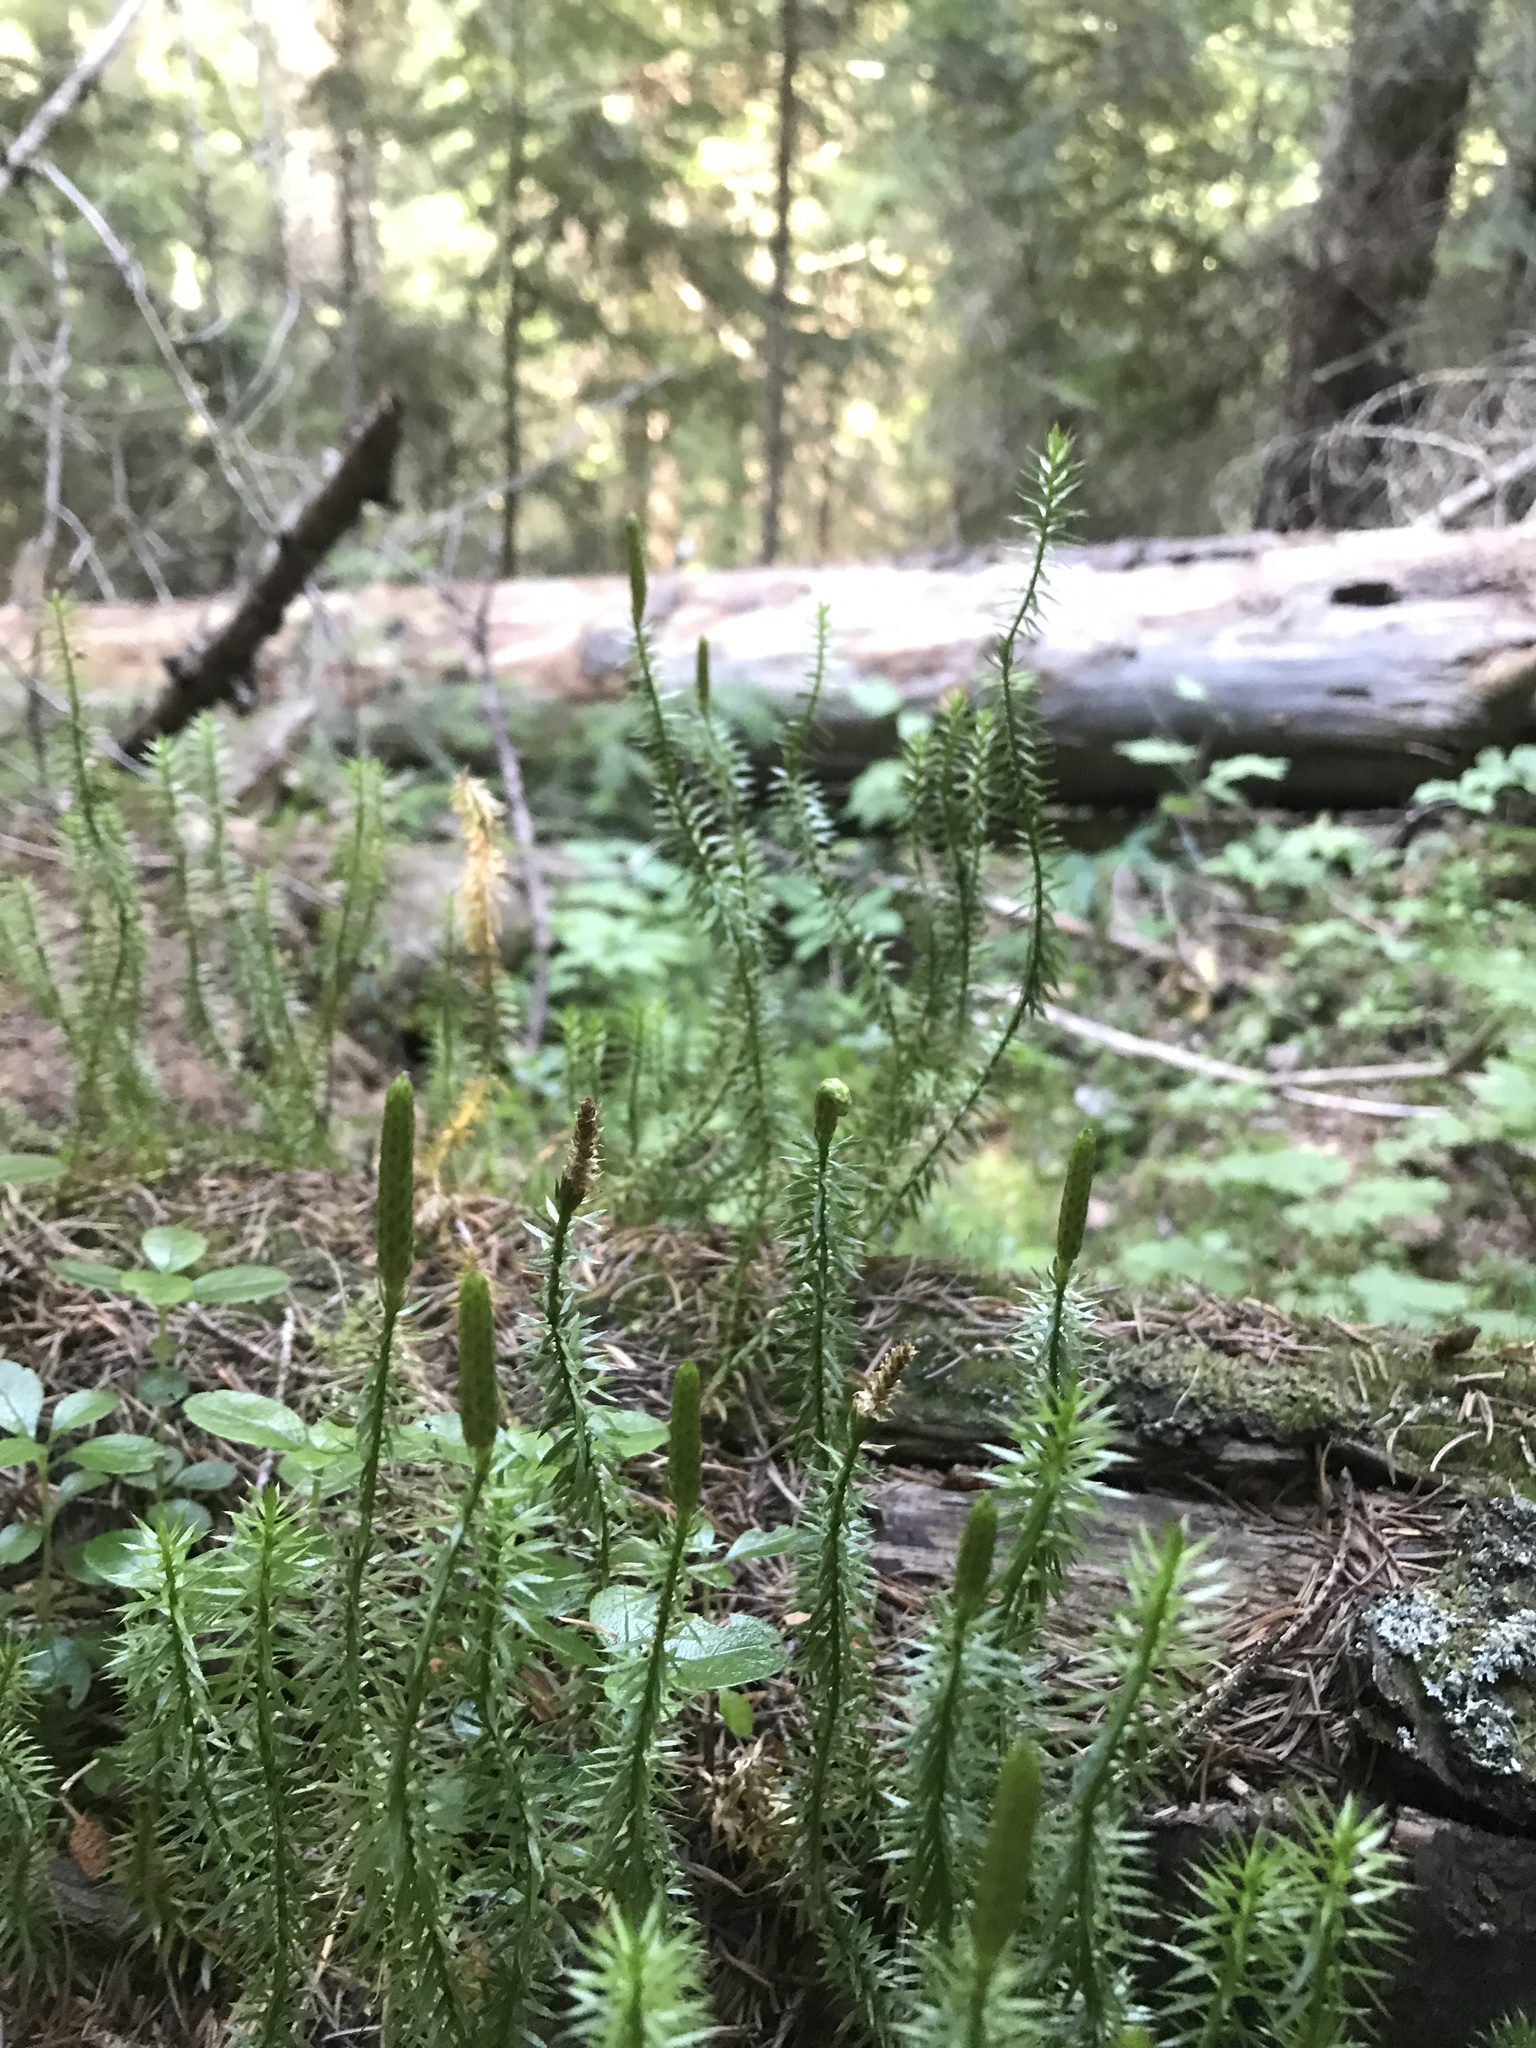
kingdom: Plantae
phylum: Tracheophyta
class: Lycopodiopsida
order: Lycopodiales
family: Lycopodiaceae
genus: Spinulum
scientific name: Spinulum annotinum
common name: Interrupted club-moss
